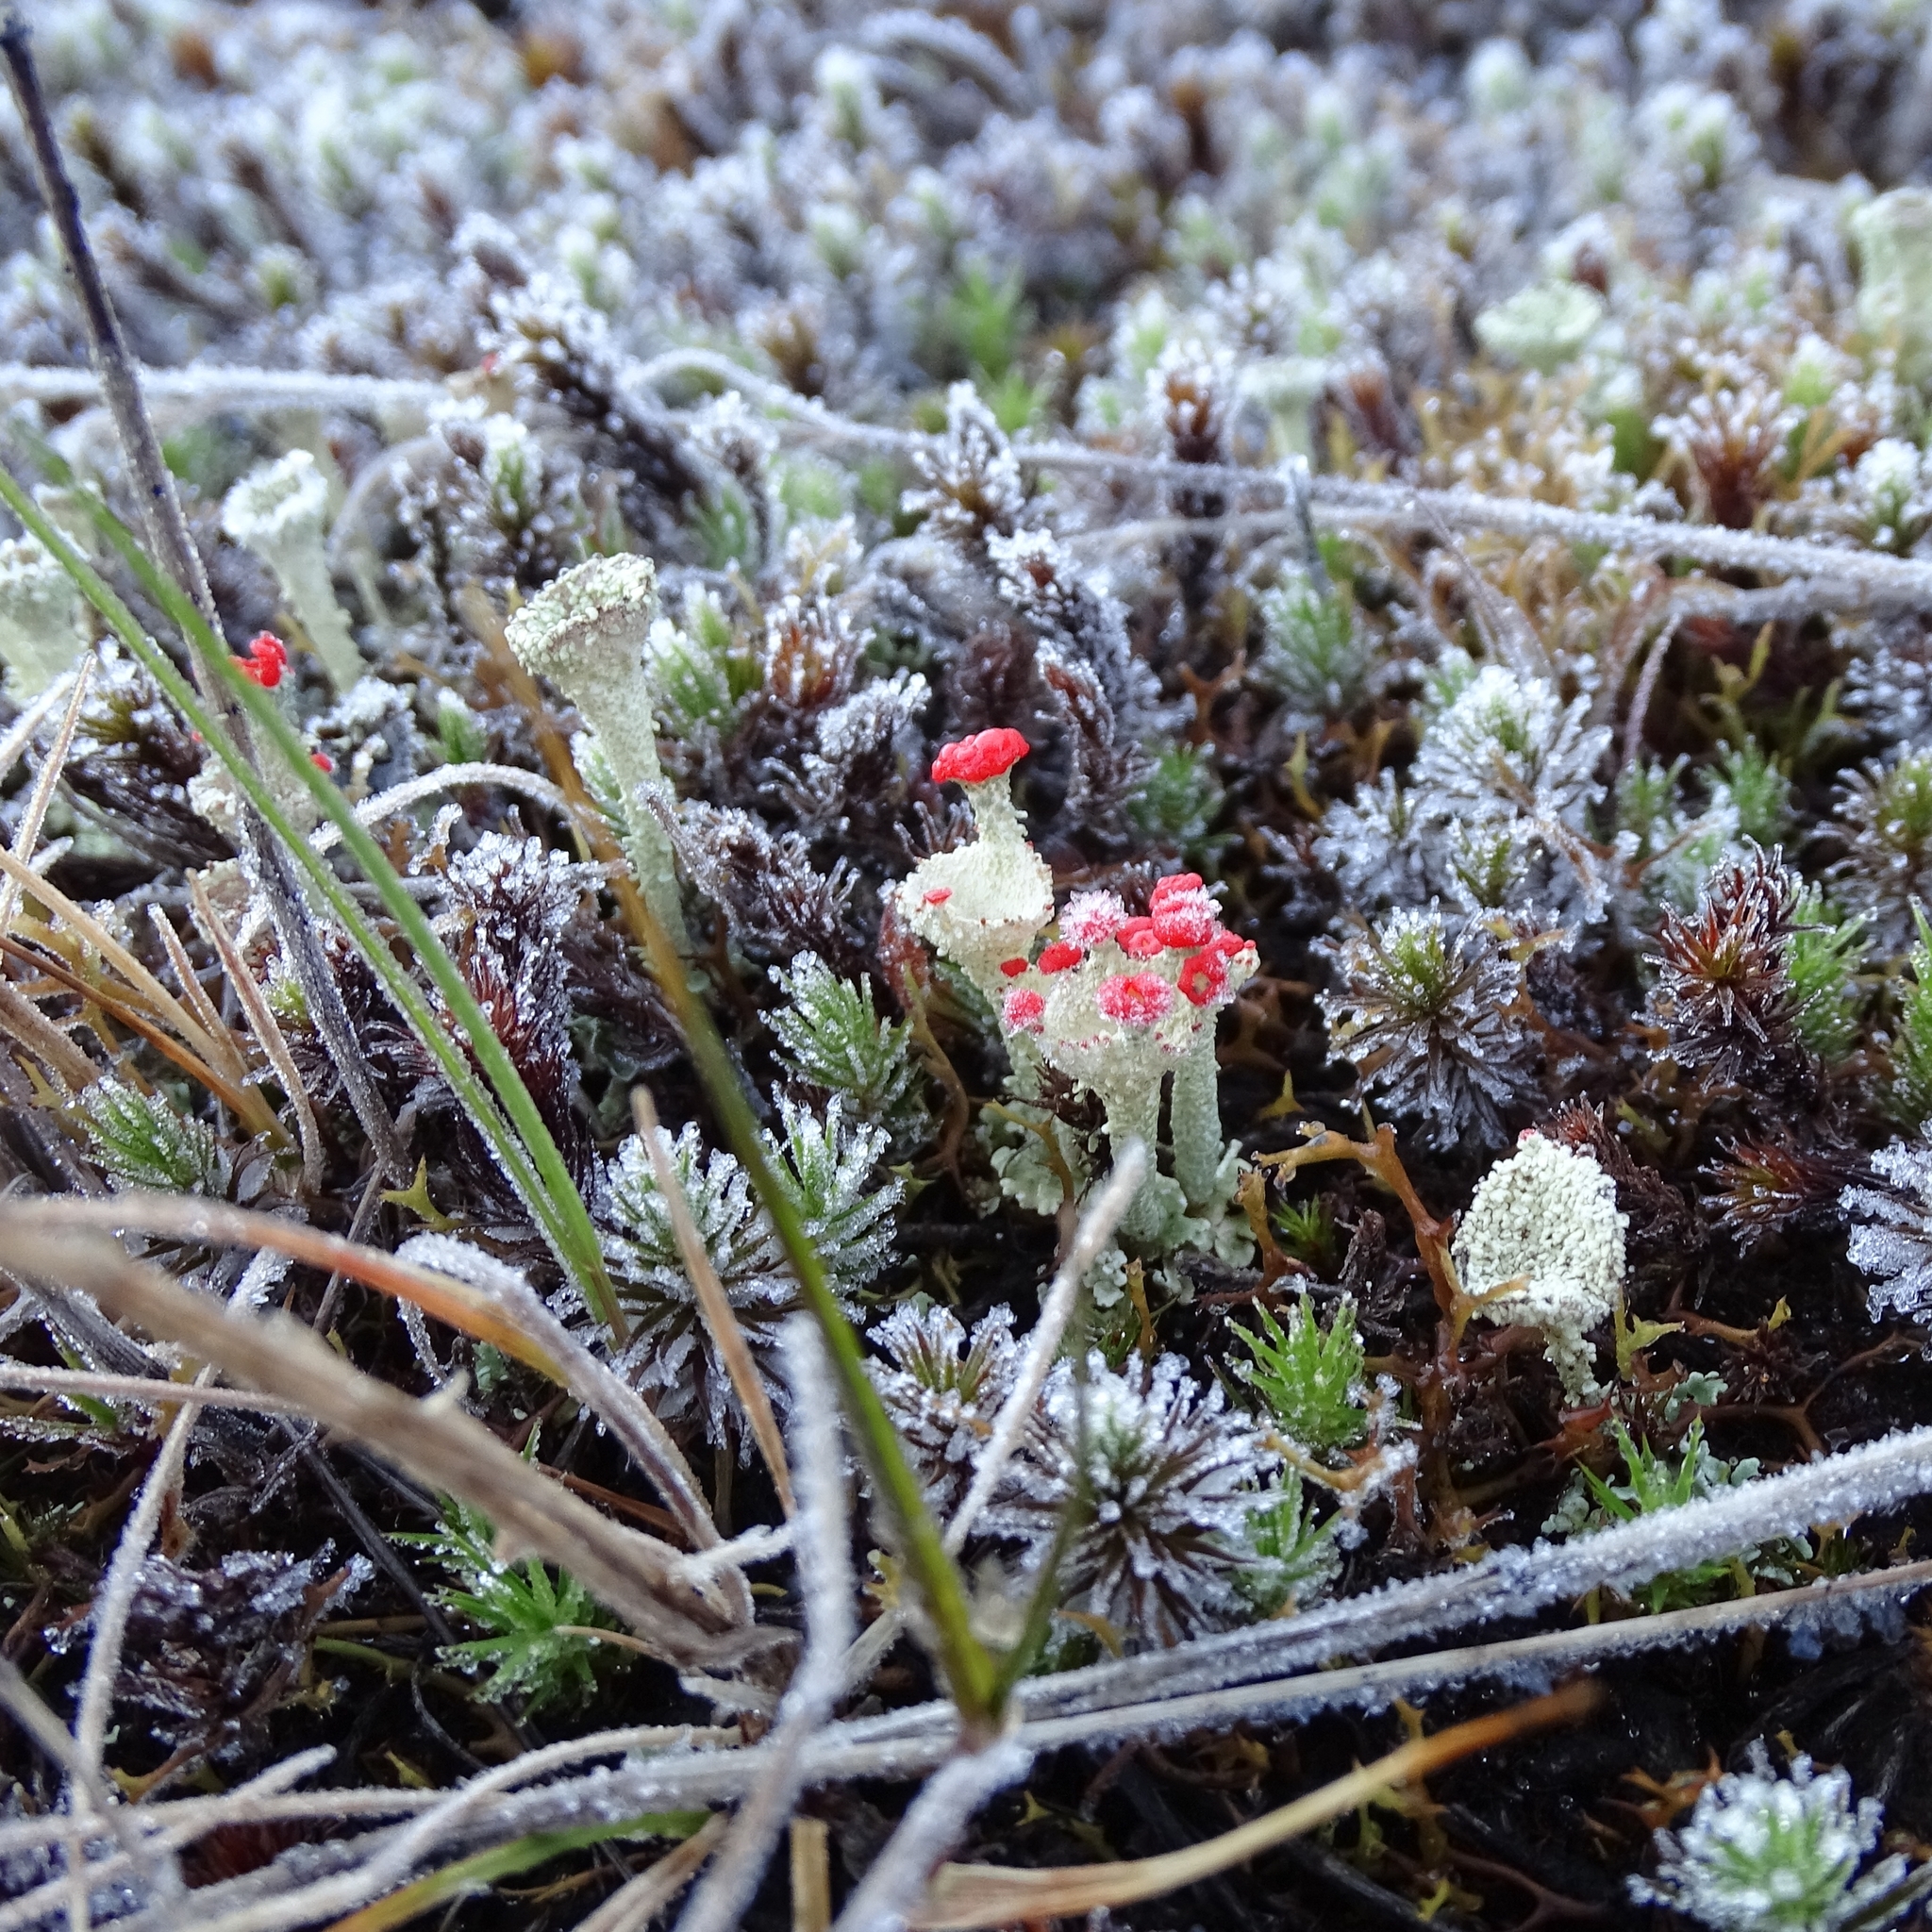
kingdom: Fungi
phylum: Ascomycota
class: Lecanoromycetes
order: Lecanorales
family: Cladoniaceae
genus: Cladonia
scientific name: Cladonia borealis
